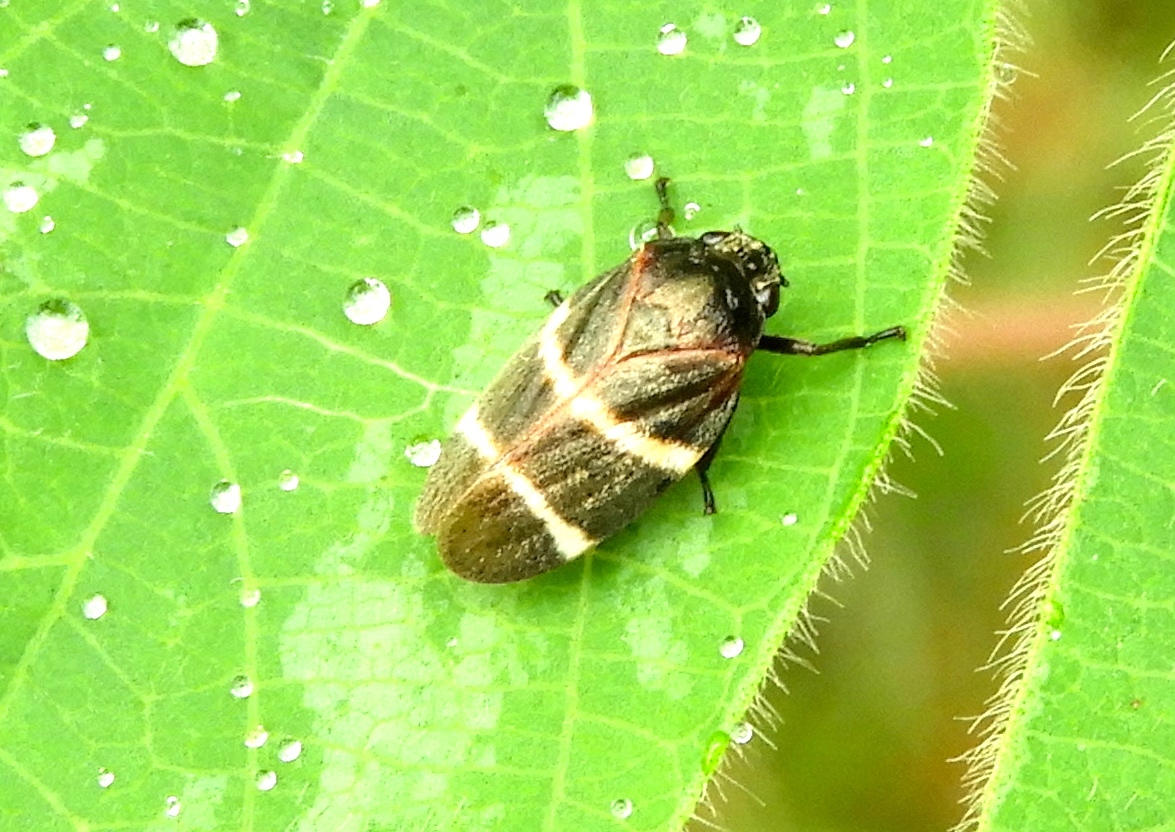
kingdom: Animalia
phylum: Arthropoda
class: Insecta
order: Hemiptera
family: Cercopidae
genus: Aeneolamia
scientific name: Aeneolamia albofasciata
